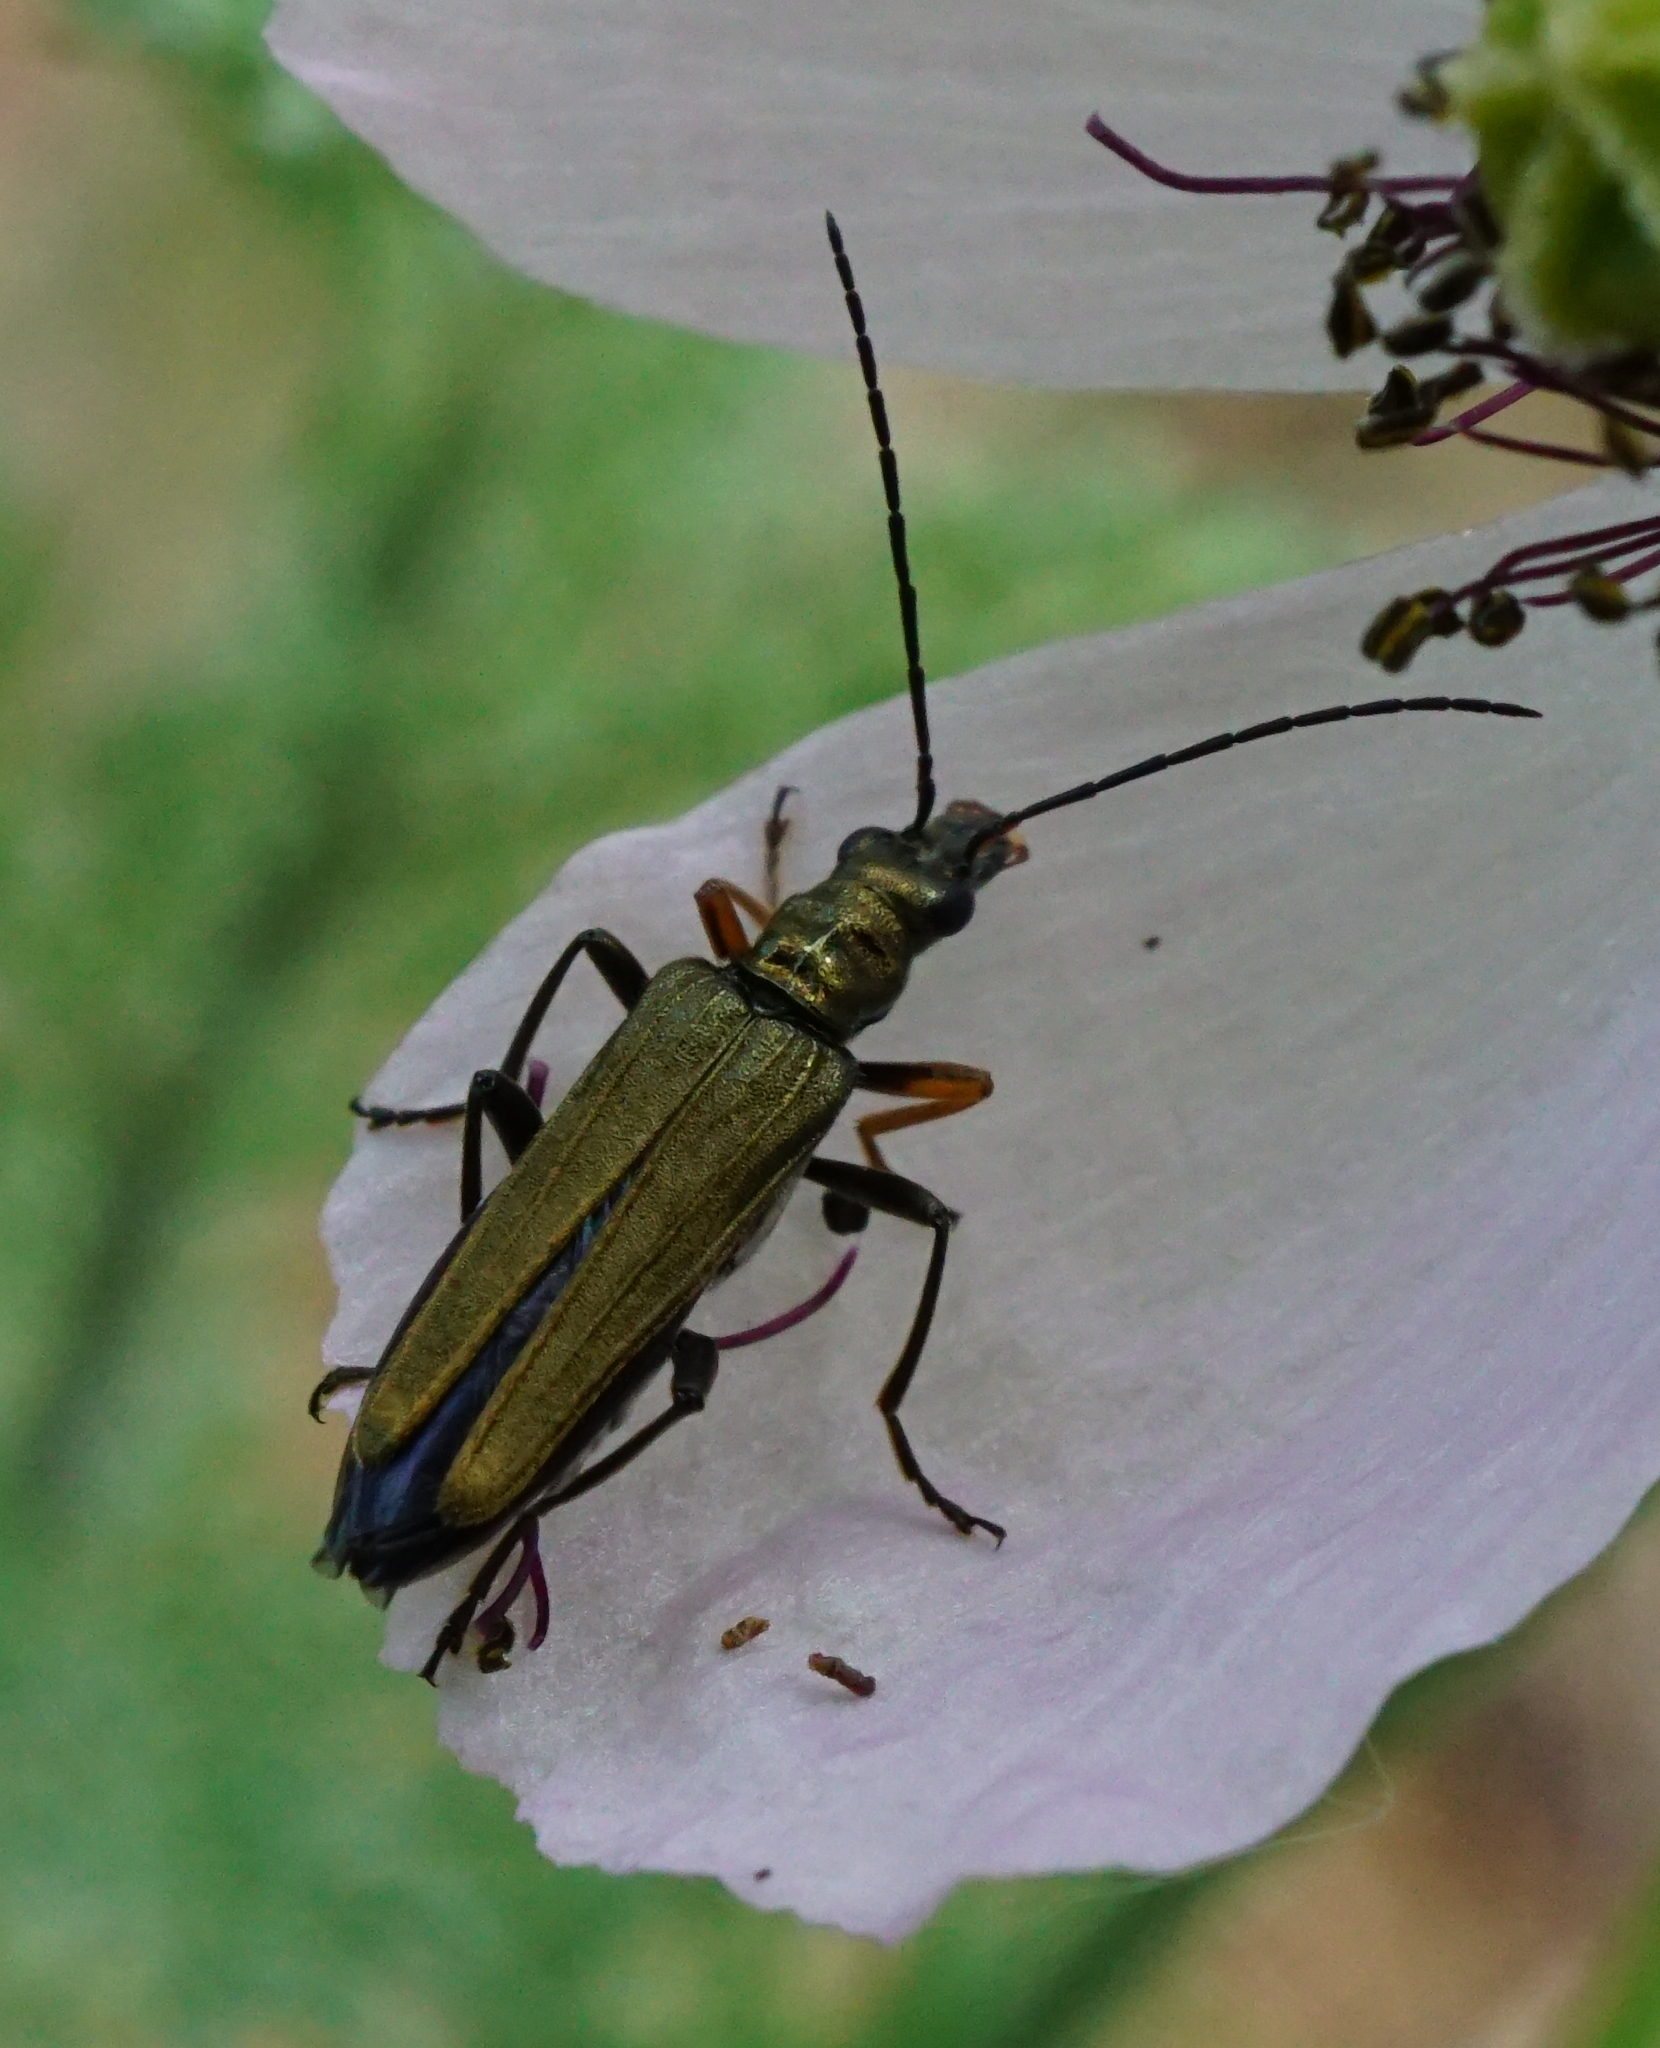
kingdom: Animalia
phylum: Arthropoda
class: Insecta
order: Coleoptera
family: Oedemeridae
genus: Oedemera
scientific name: Oedemera flavipes
